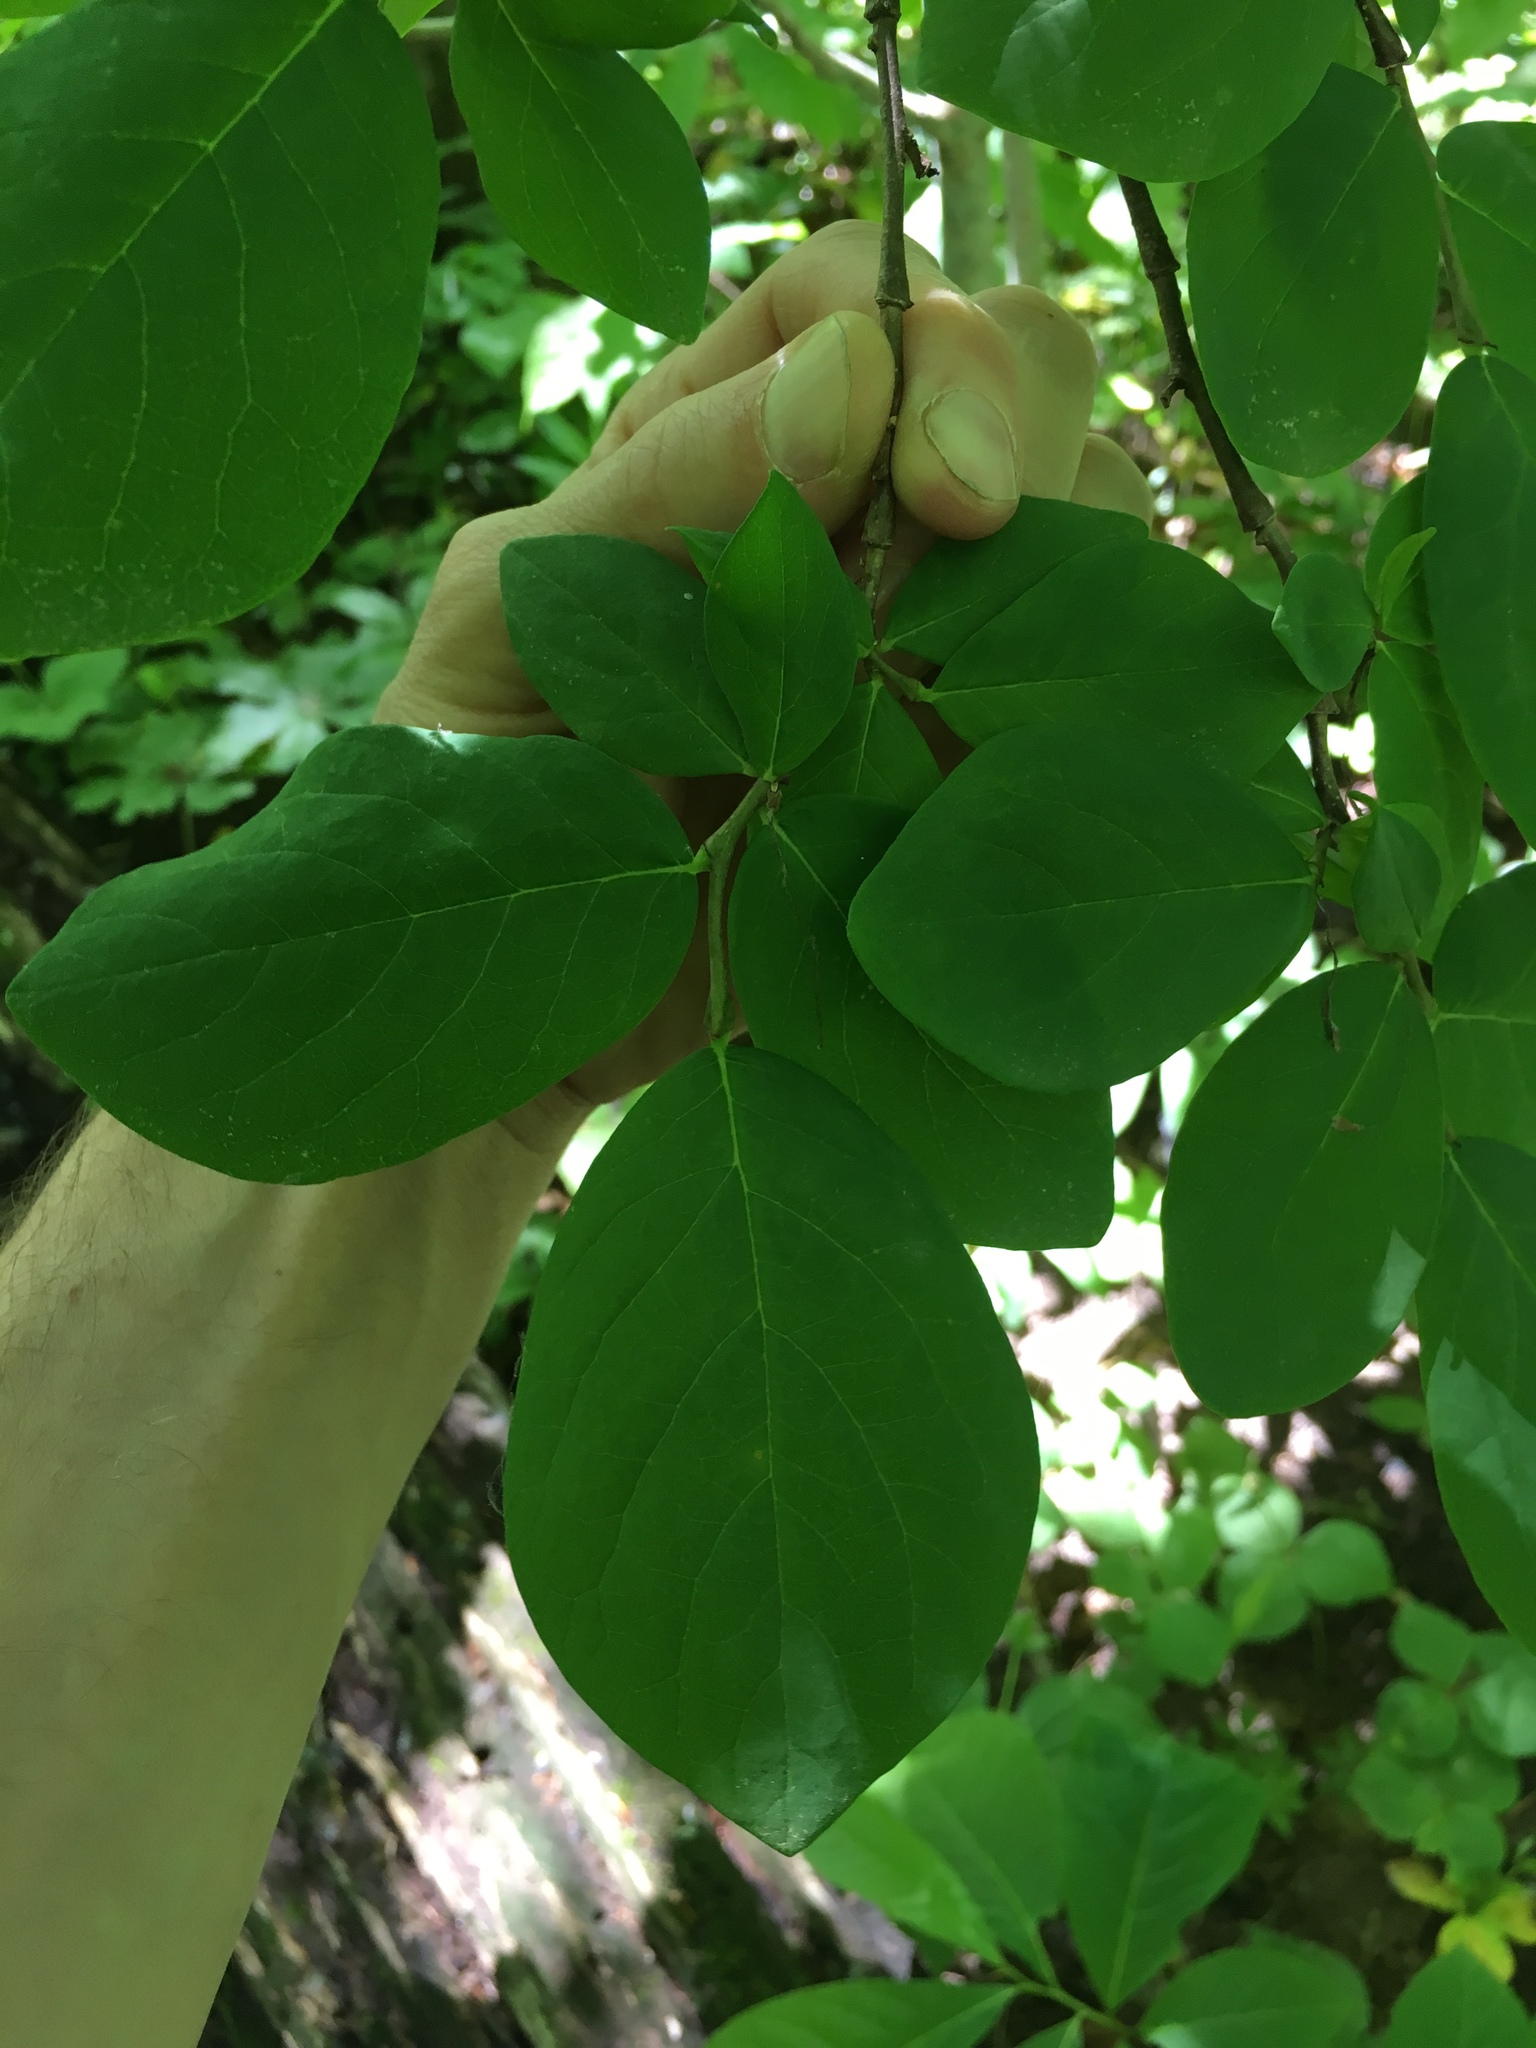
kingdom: Plantae
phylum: Tracheophyta
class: Magnoliopsida
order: Malvales
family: Thymelaeaceae
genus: Dirca
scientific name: Dirca palustris
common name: Leatherwood
